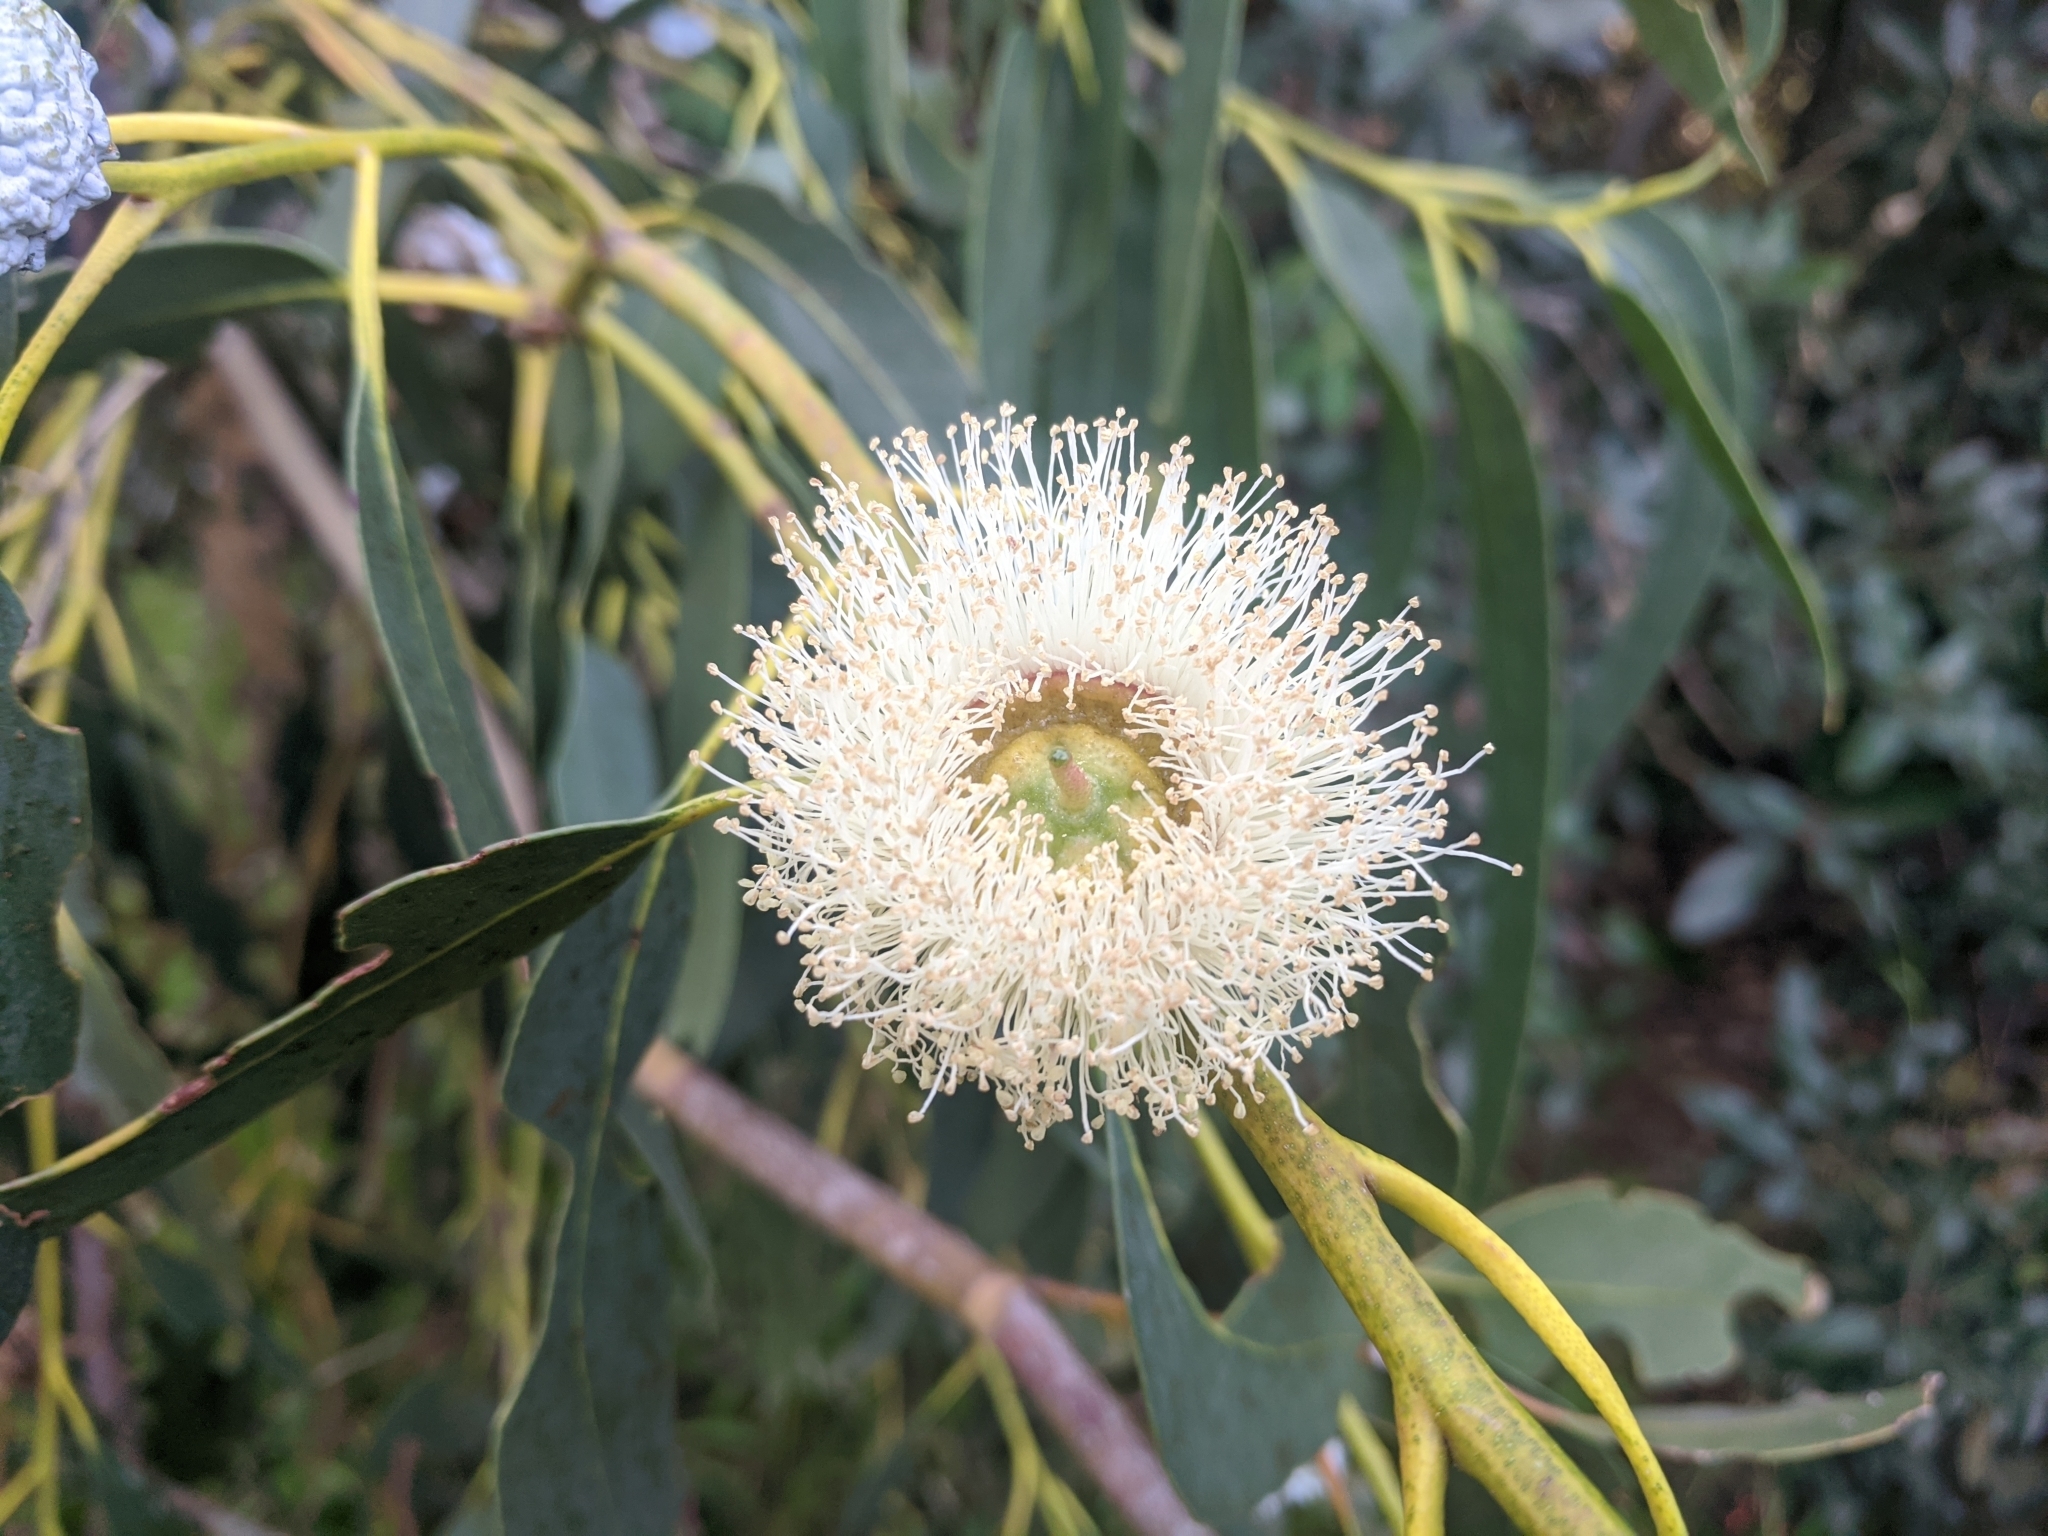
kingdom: Plantae
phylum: Tracheophyta
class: Magnoliopsida
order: Myrtales
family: Myrtaceae
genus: Eucalyptus
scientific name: Eucalyptus globulus
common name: Southern blue-gum
